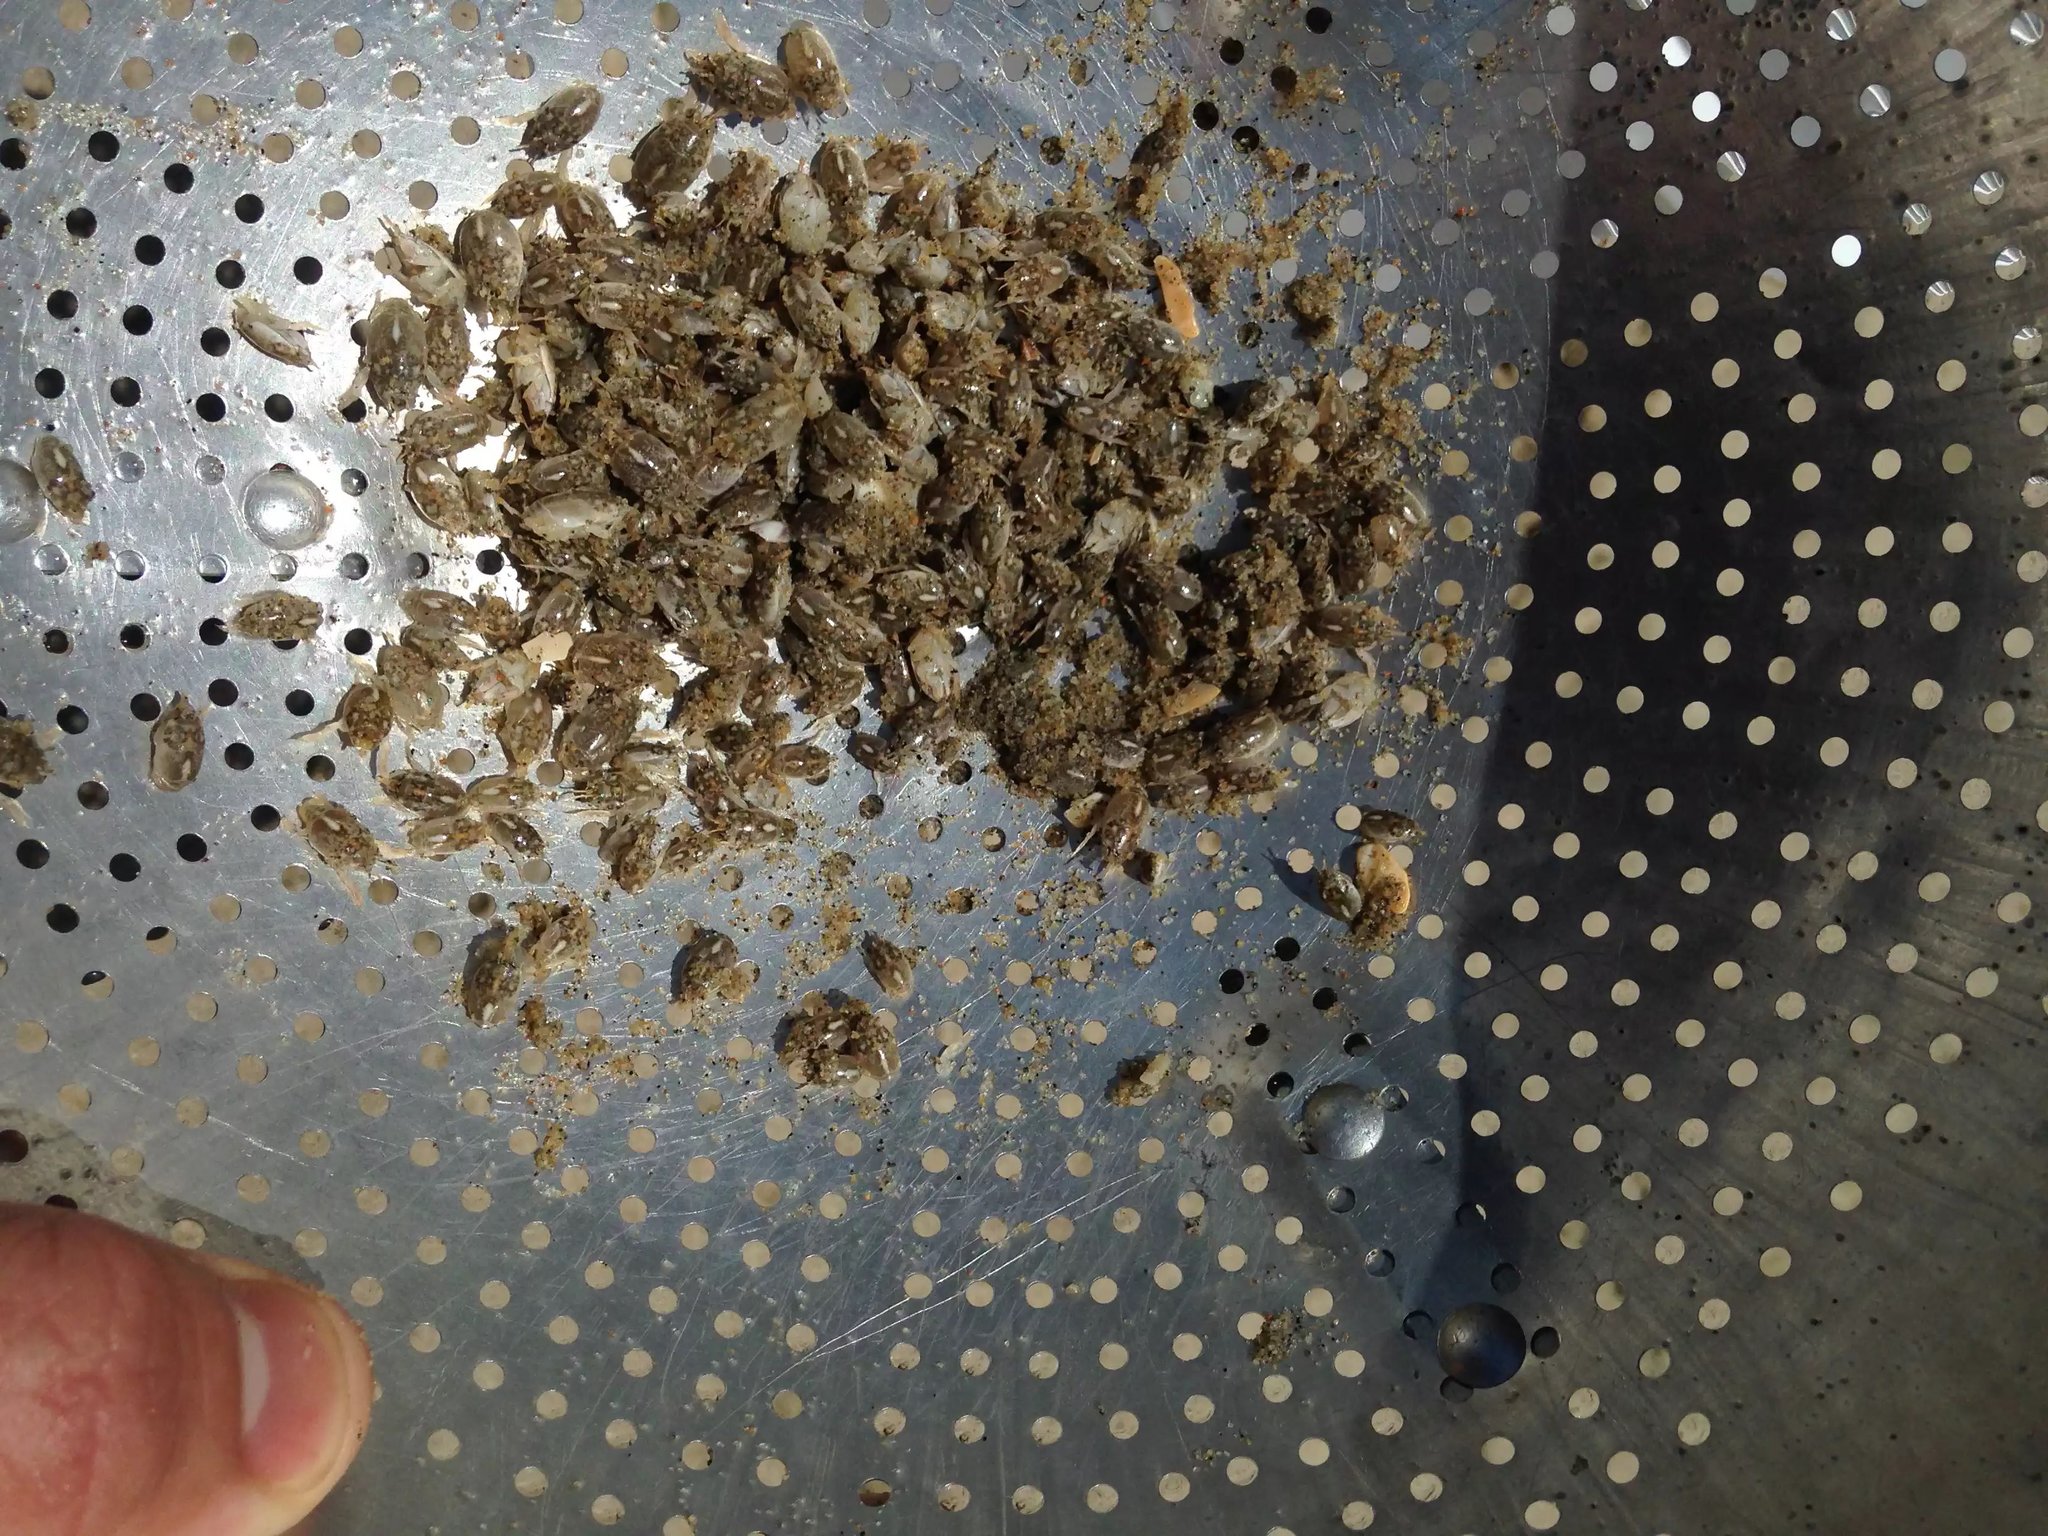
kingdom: Animalia
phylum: Arthropoda
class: Malacostraca
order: Decapoda
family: Hippidae
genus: Emerita
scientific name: Emerita analoga
